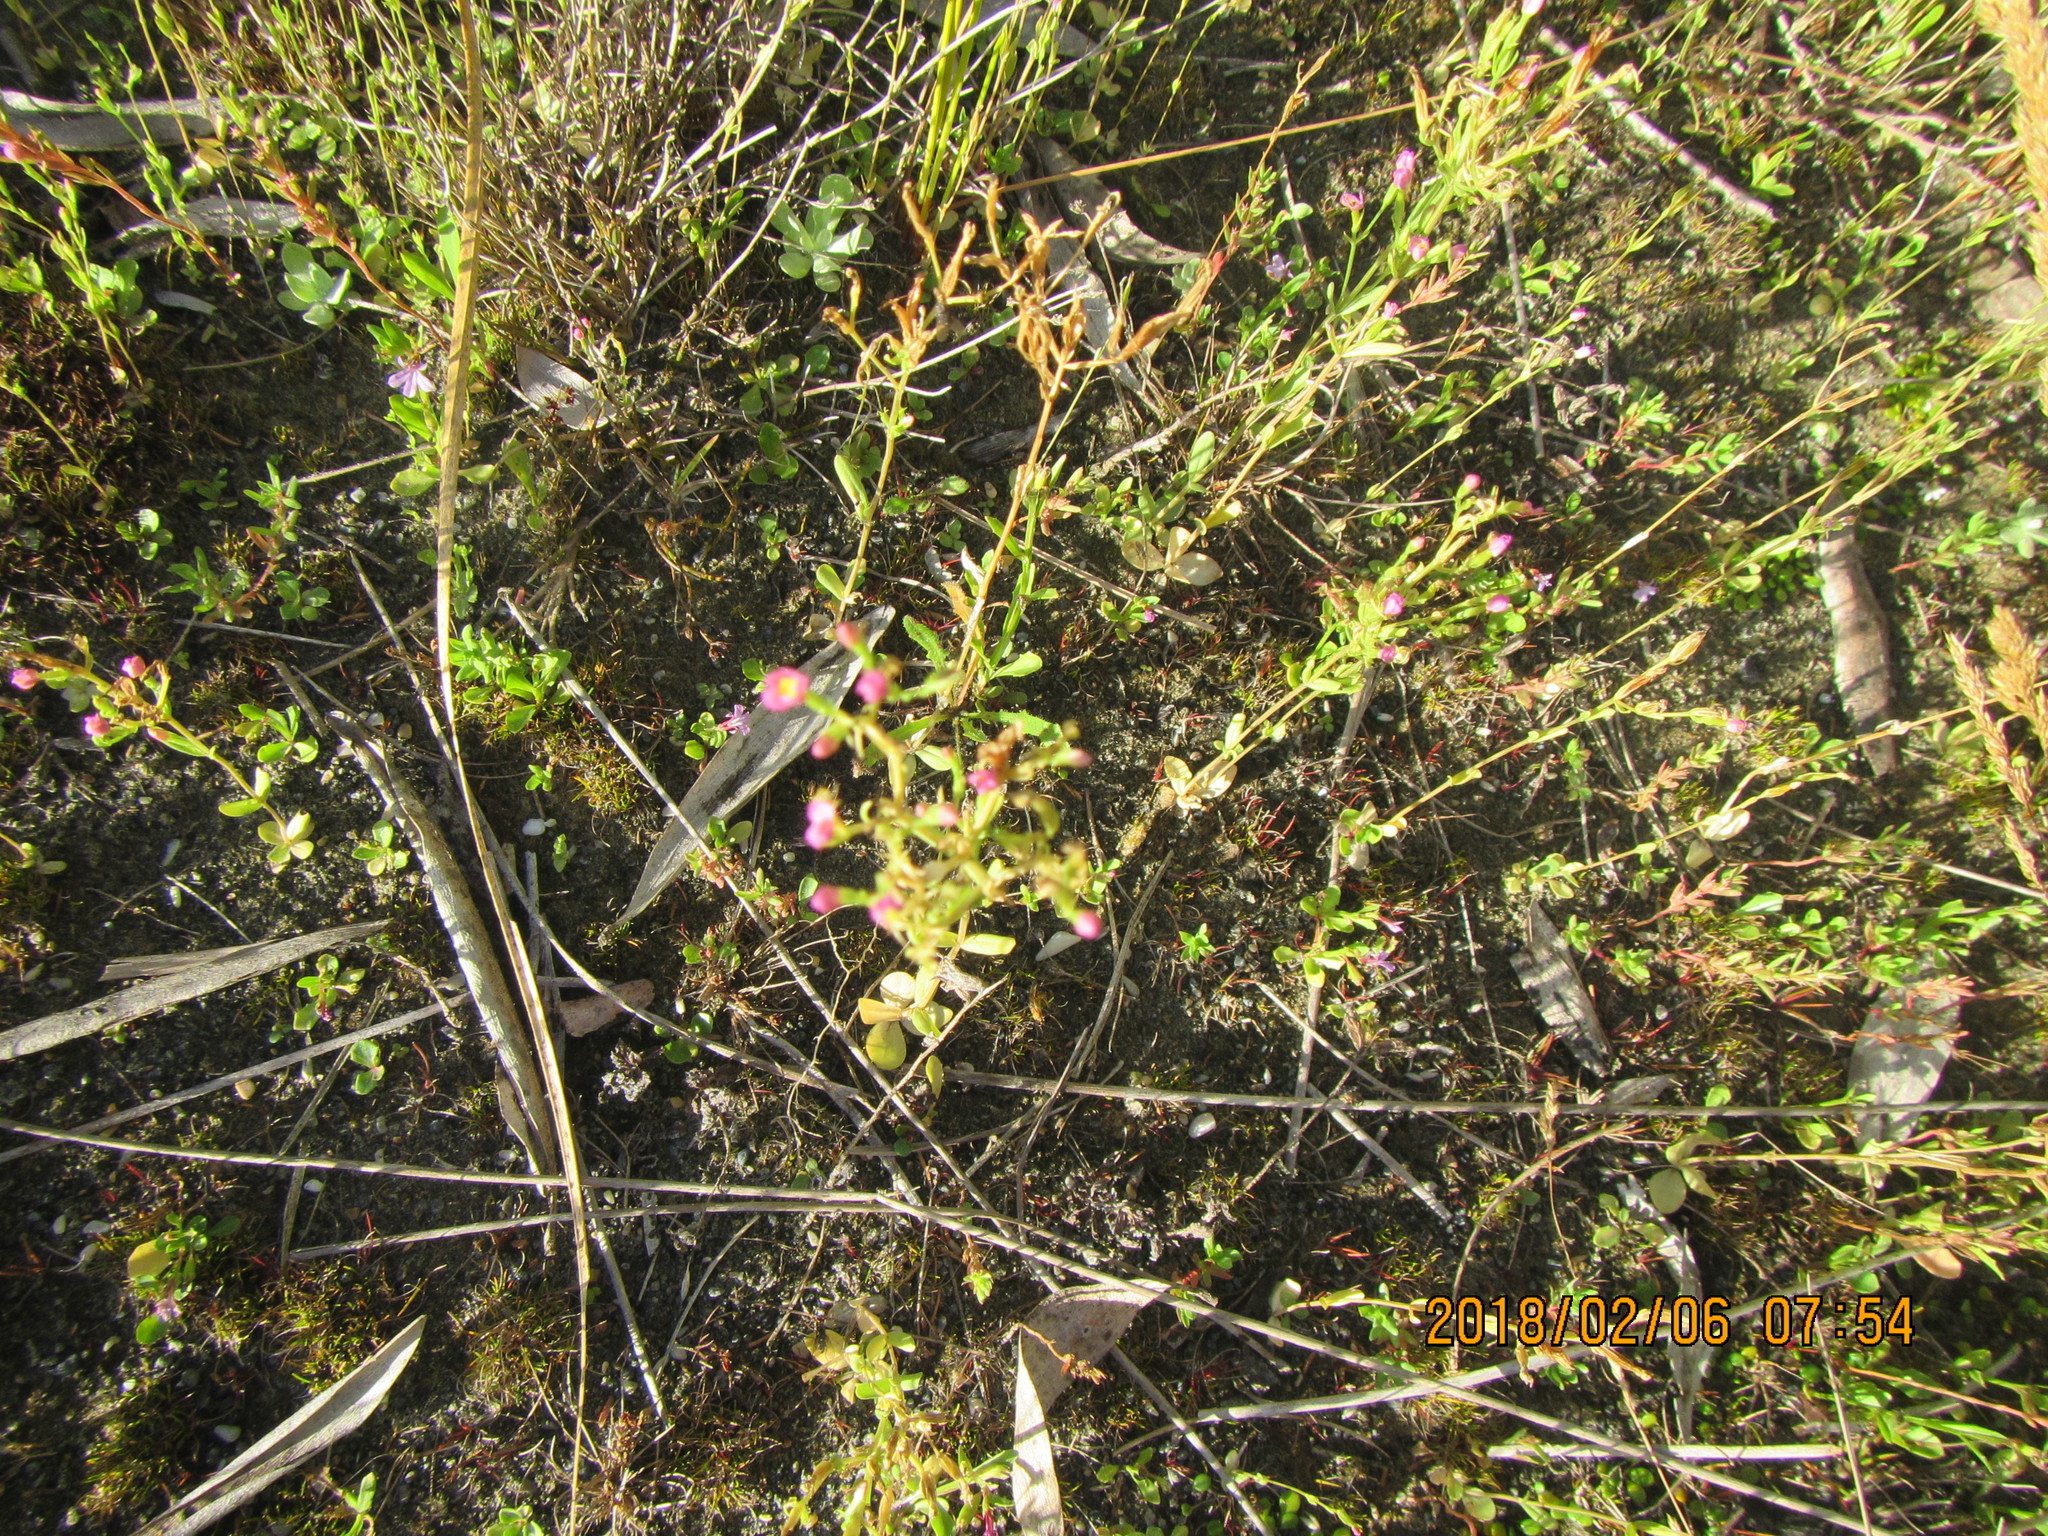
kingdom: Plantae
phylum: Tracheophyta
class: Magnoliopsida
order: Gentianales
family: Gentianaceae
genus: Centaurium
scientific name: Centaurium erythraea
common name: Common centaury
